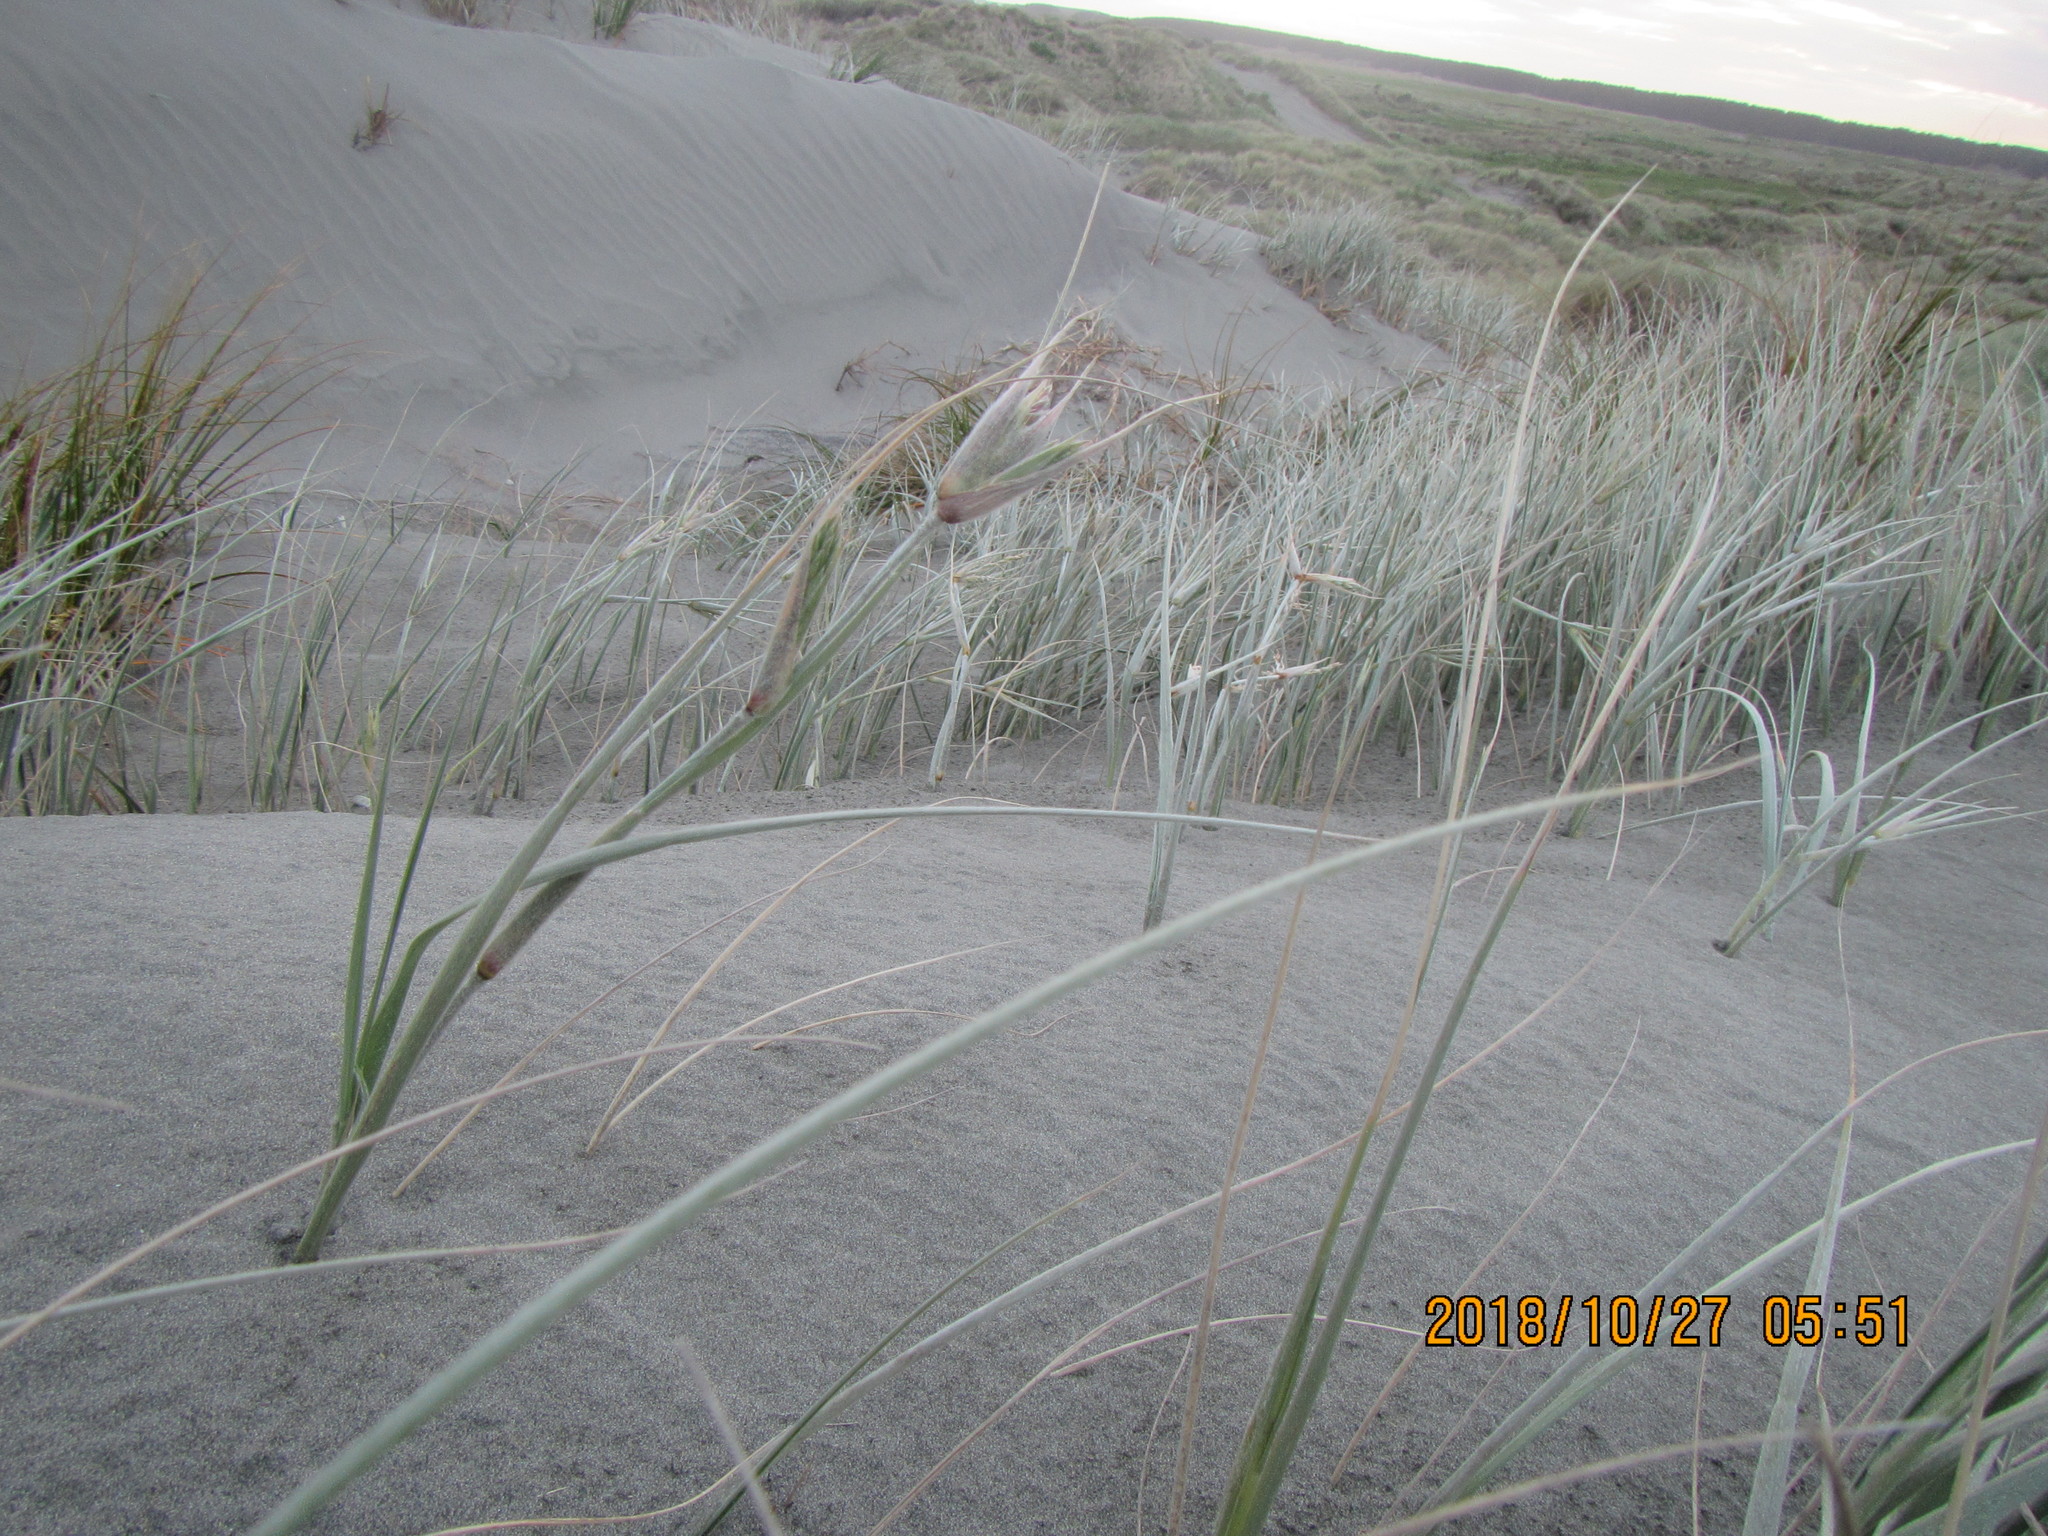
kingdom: Plantae
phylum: Tracheophyta
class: Liliopsida
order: Poales
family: Poaceae
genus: Spinifex
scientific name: Spinifex sericeus
